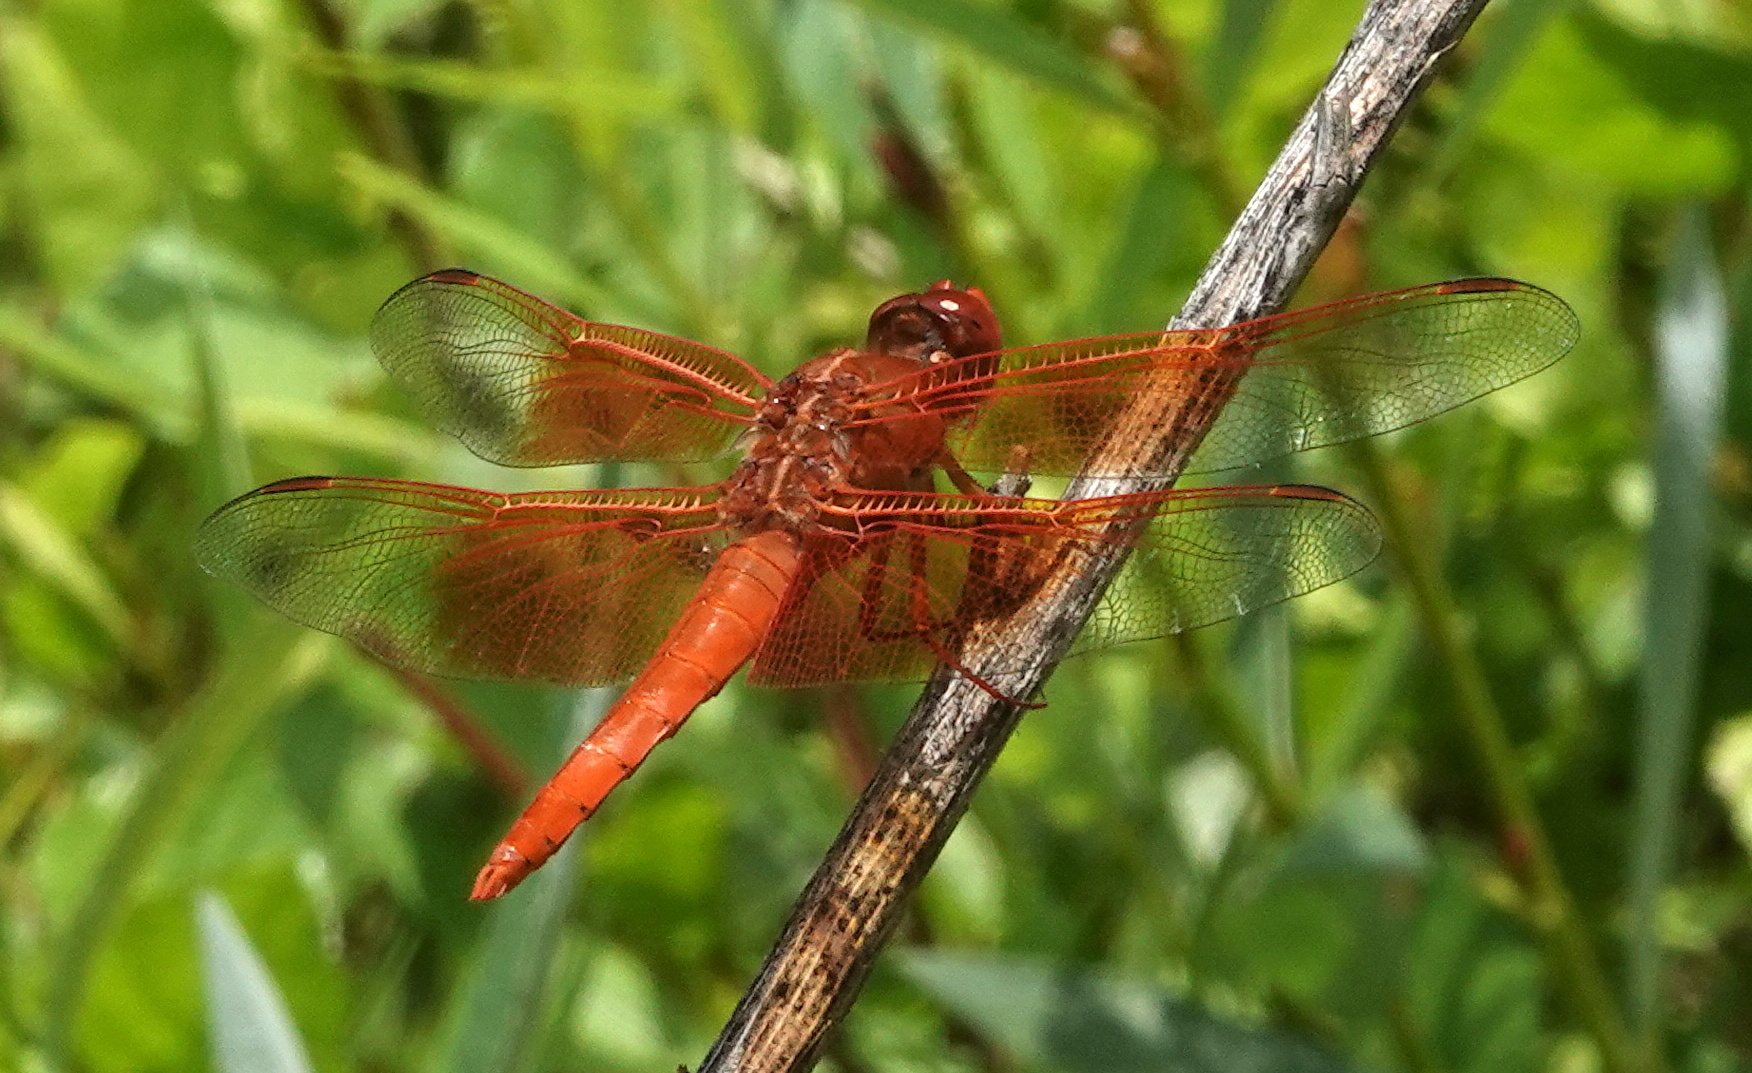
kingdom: Animalia
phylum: Arthropoda
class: Insecta
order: Odonata
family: Libellulidae
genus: Libellula
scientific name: Libellula saturata
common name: Flame skimmer
